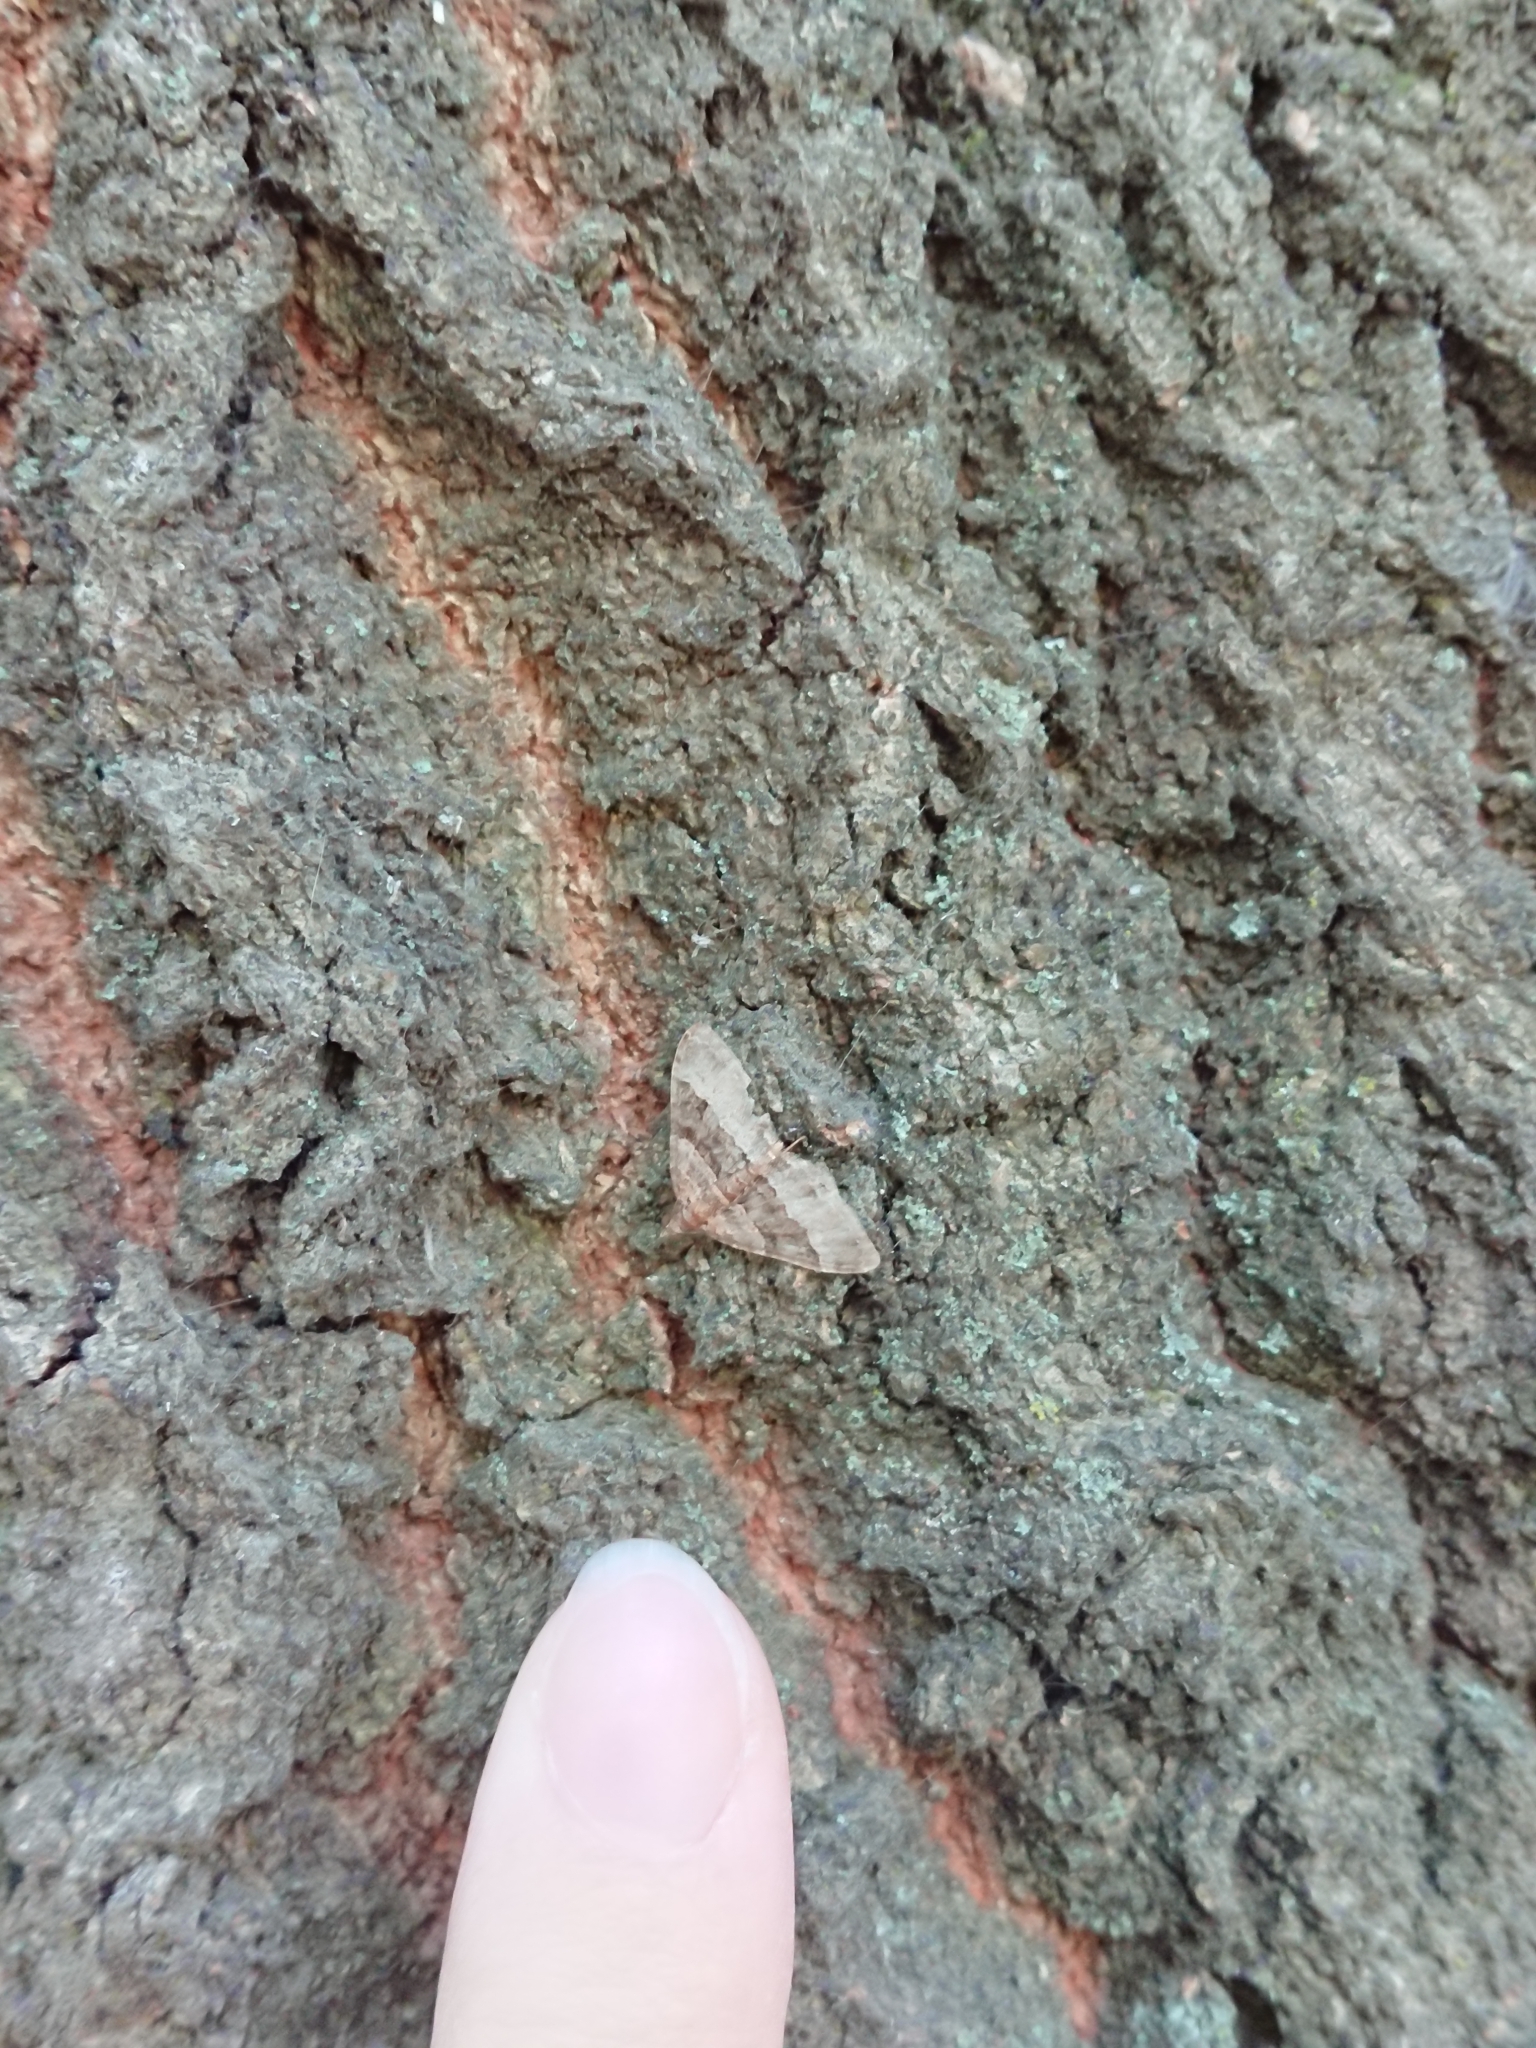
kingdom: Animalia
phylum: Arthropoda
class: Insecta
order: Lepidoptera
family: Geometridae
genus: Epyaxa
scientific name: Epyaxa lucidata
